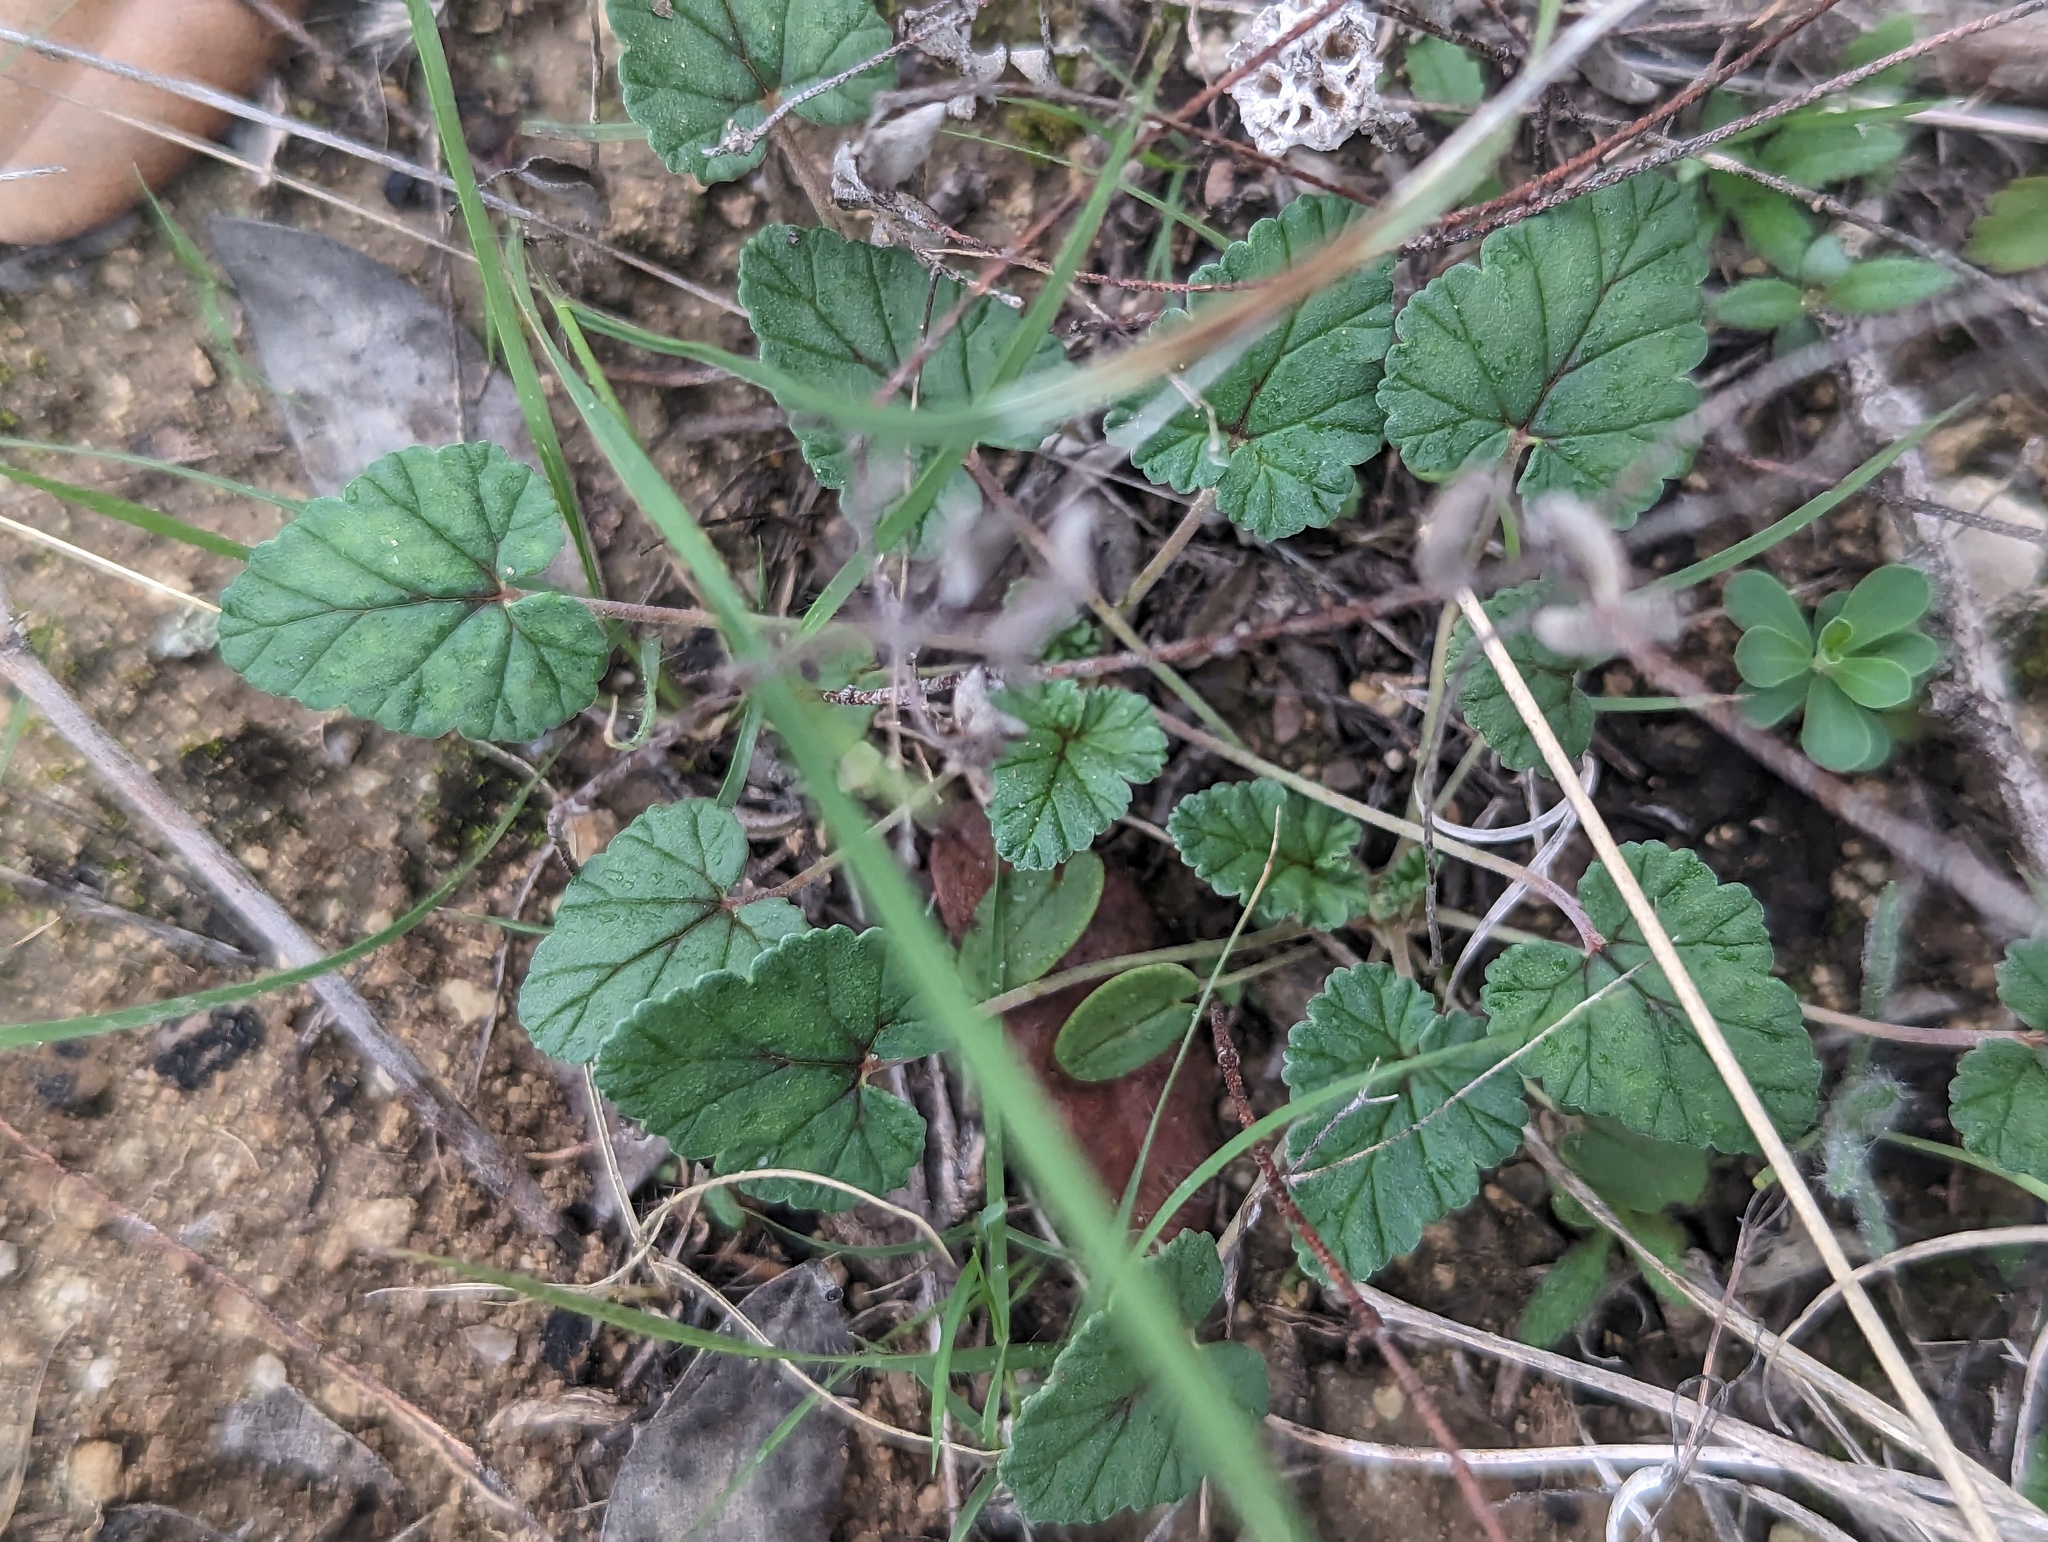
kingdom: Plantae
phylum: Tracheophyta
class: Magnoliopsida
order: Geraniales
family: Geraniaceae
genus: Erodium
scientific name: Erodium texanum
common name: Texas stork's-bill
